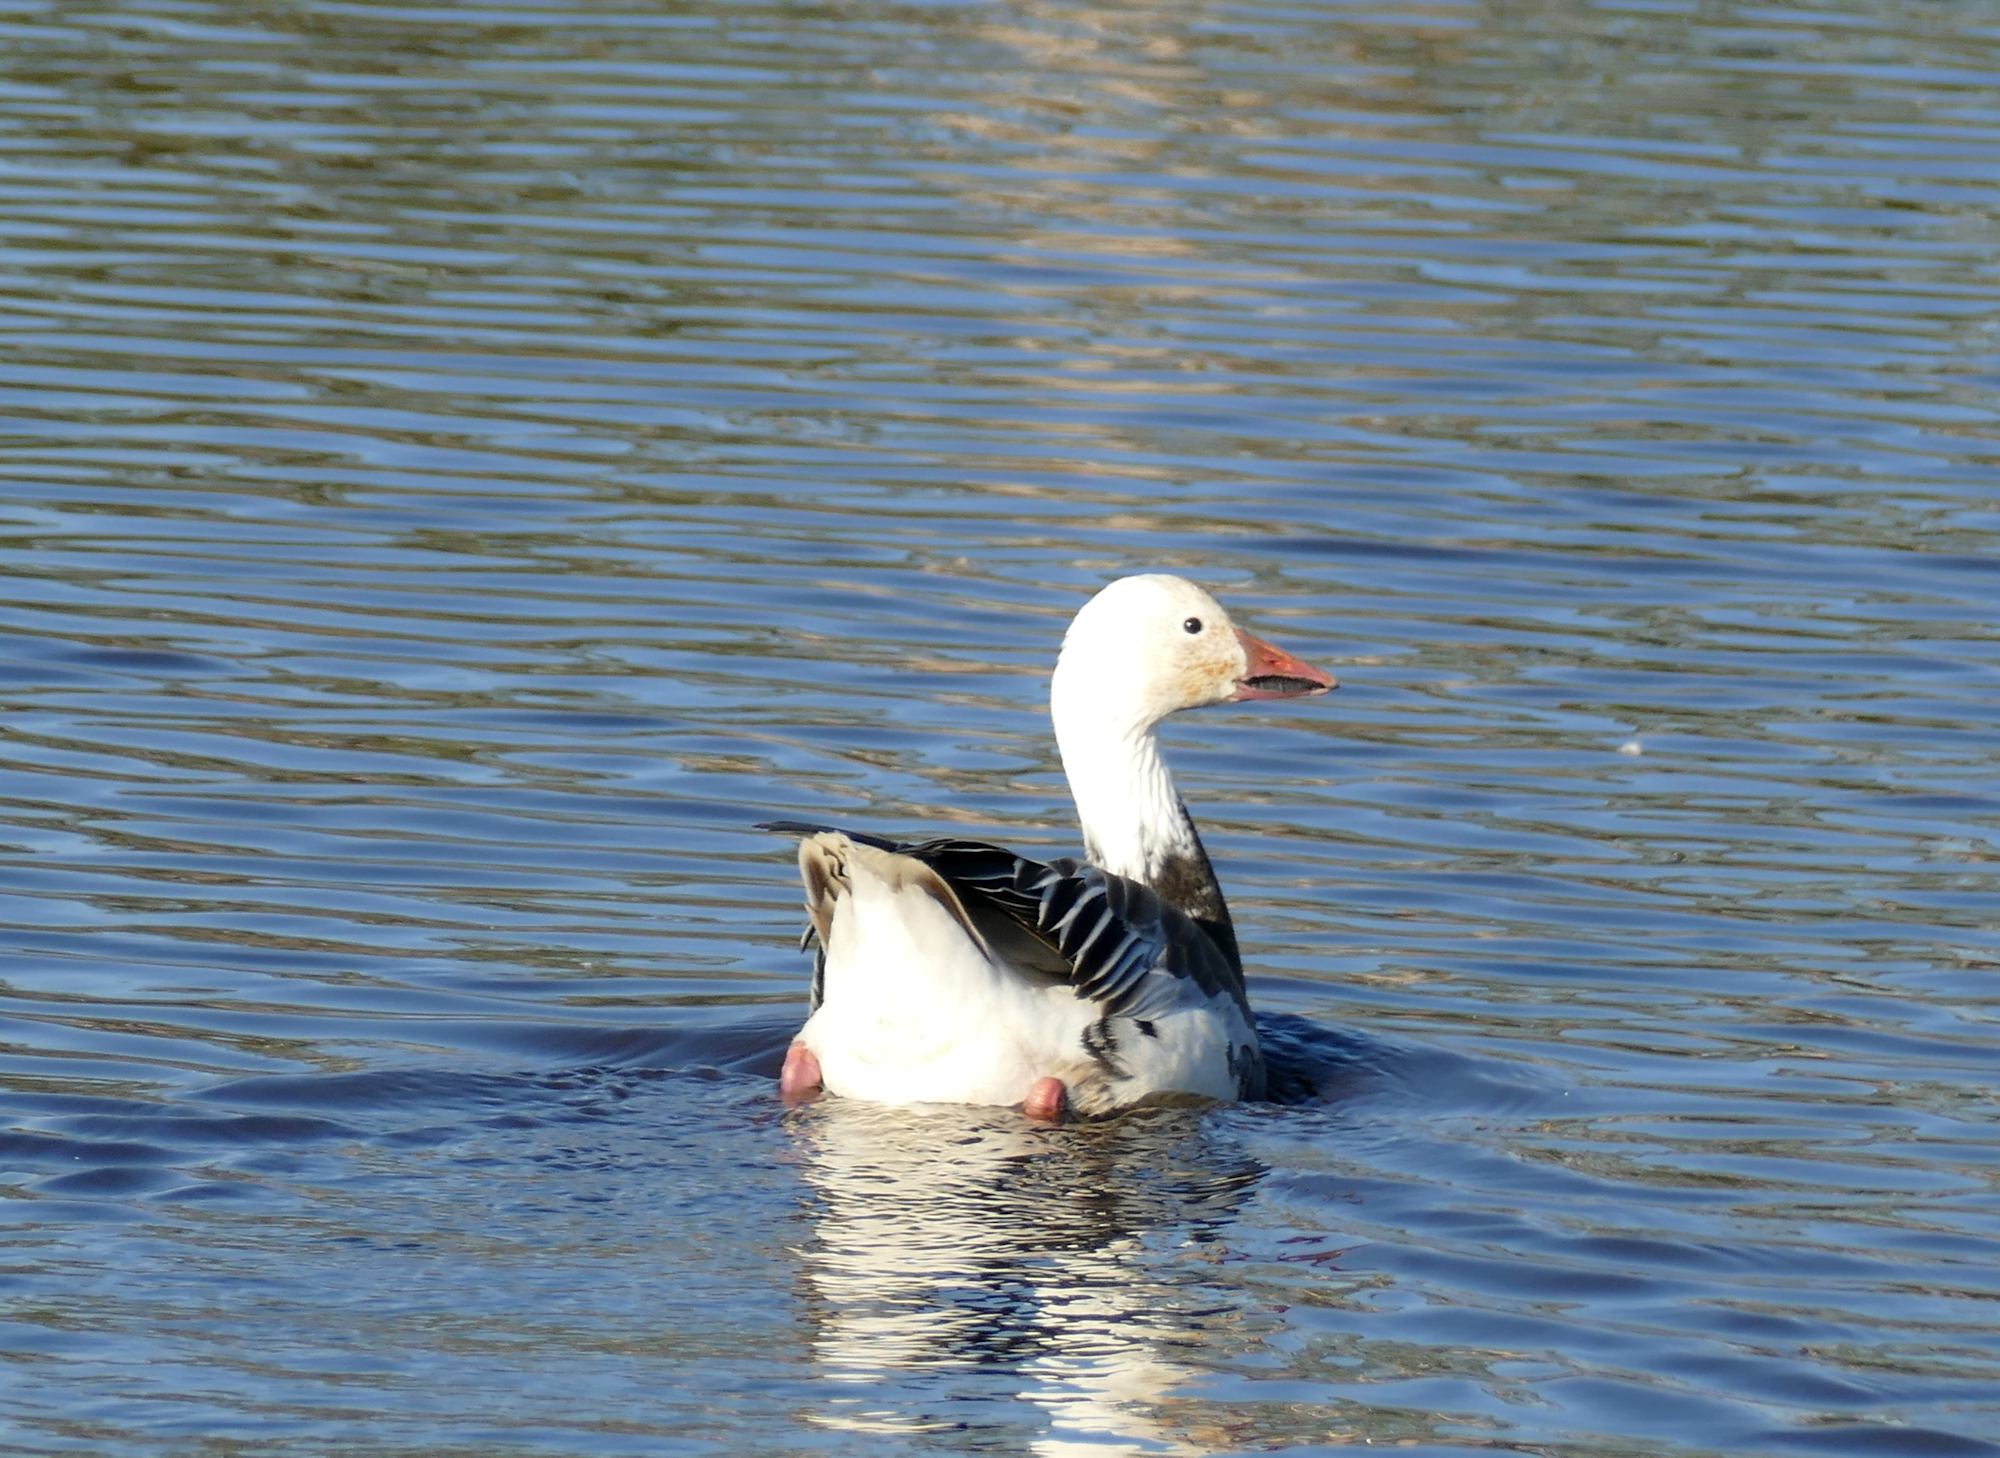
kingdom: Animalia
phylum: Chordata
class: Aves
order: Anseriformes
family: Anatidae
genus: Anser
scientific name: Anser caerulescens
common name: Snow goose
